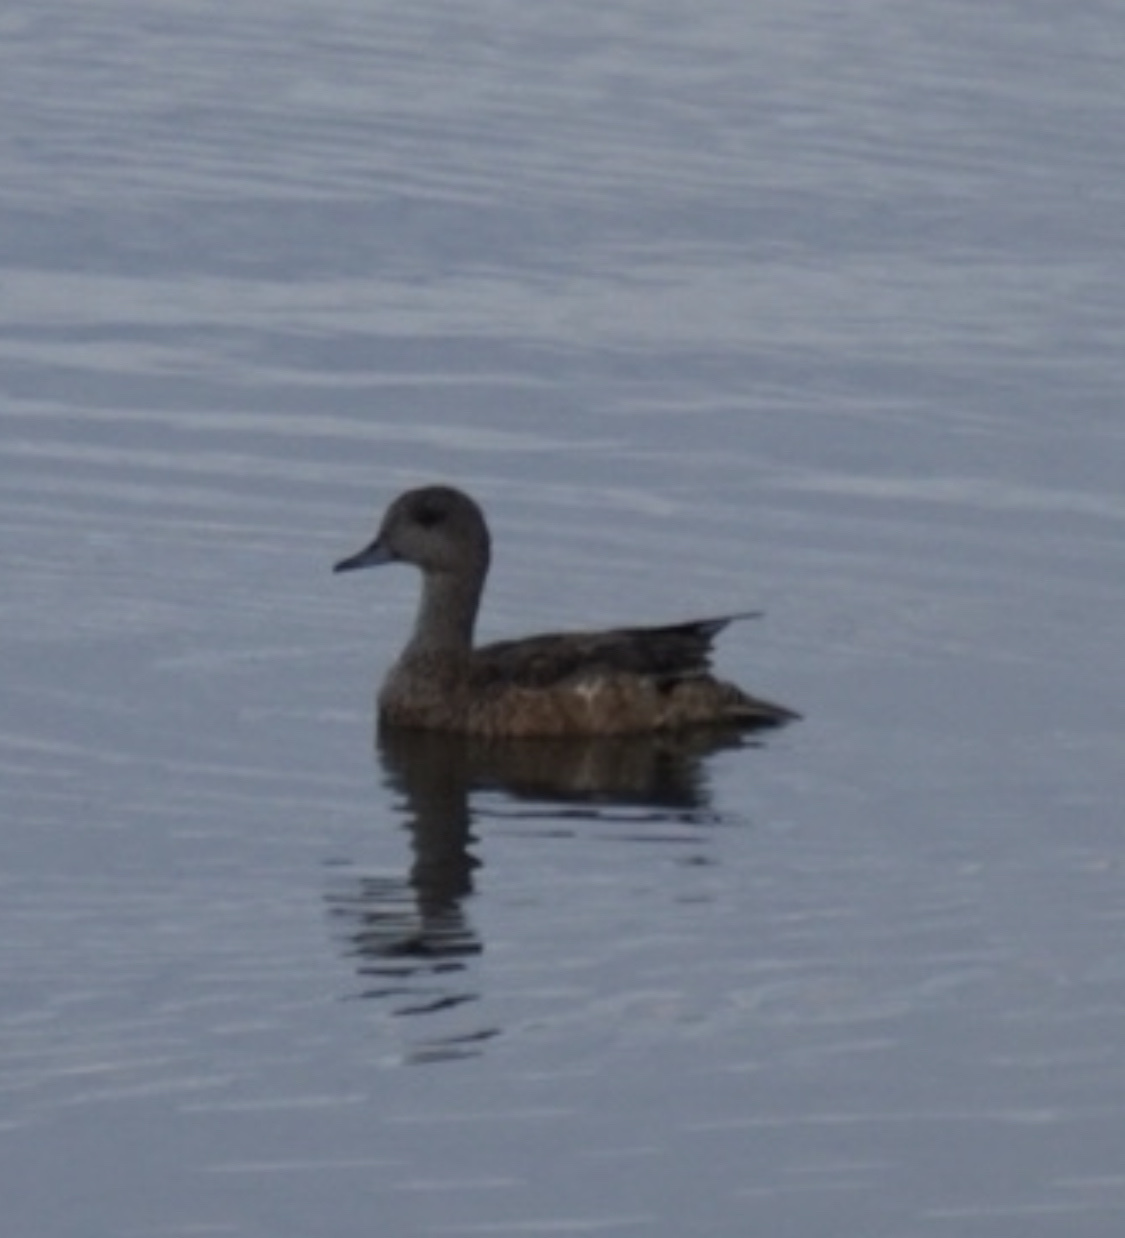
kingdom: Animalia
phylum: Chordata
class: Aves
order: Anseriformes
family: Anatidae
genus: Mareca
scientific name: Mareca americana
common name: American wigeon
